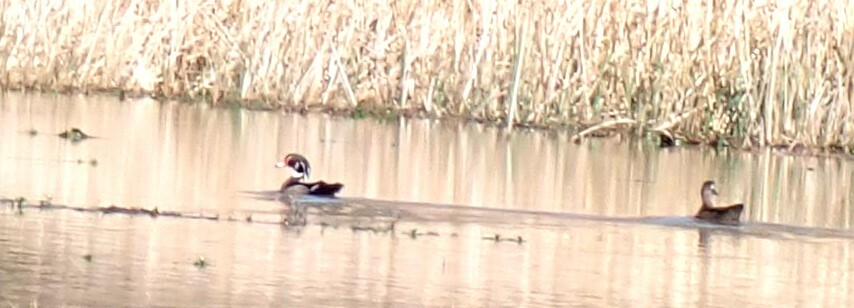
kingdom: Animalia
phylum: Chordata
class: Aves
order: Anseriformes
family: Anatidae
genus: Aix
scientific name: Aix sponsa
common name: Wood duck
